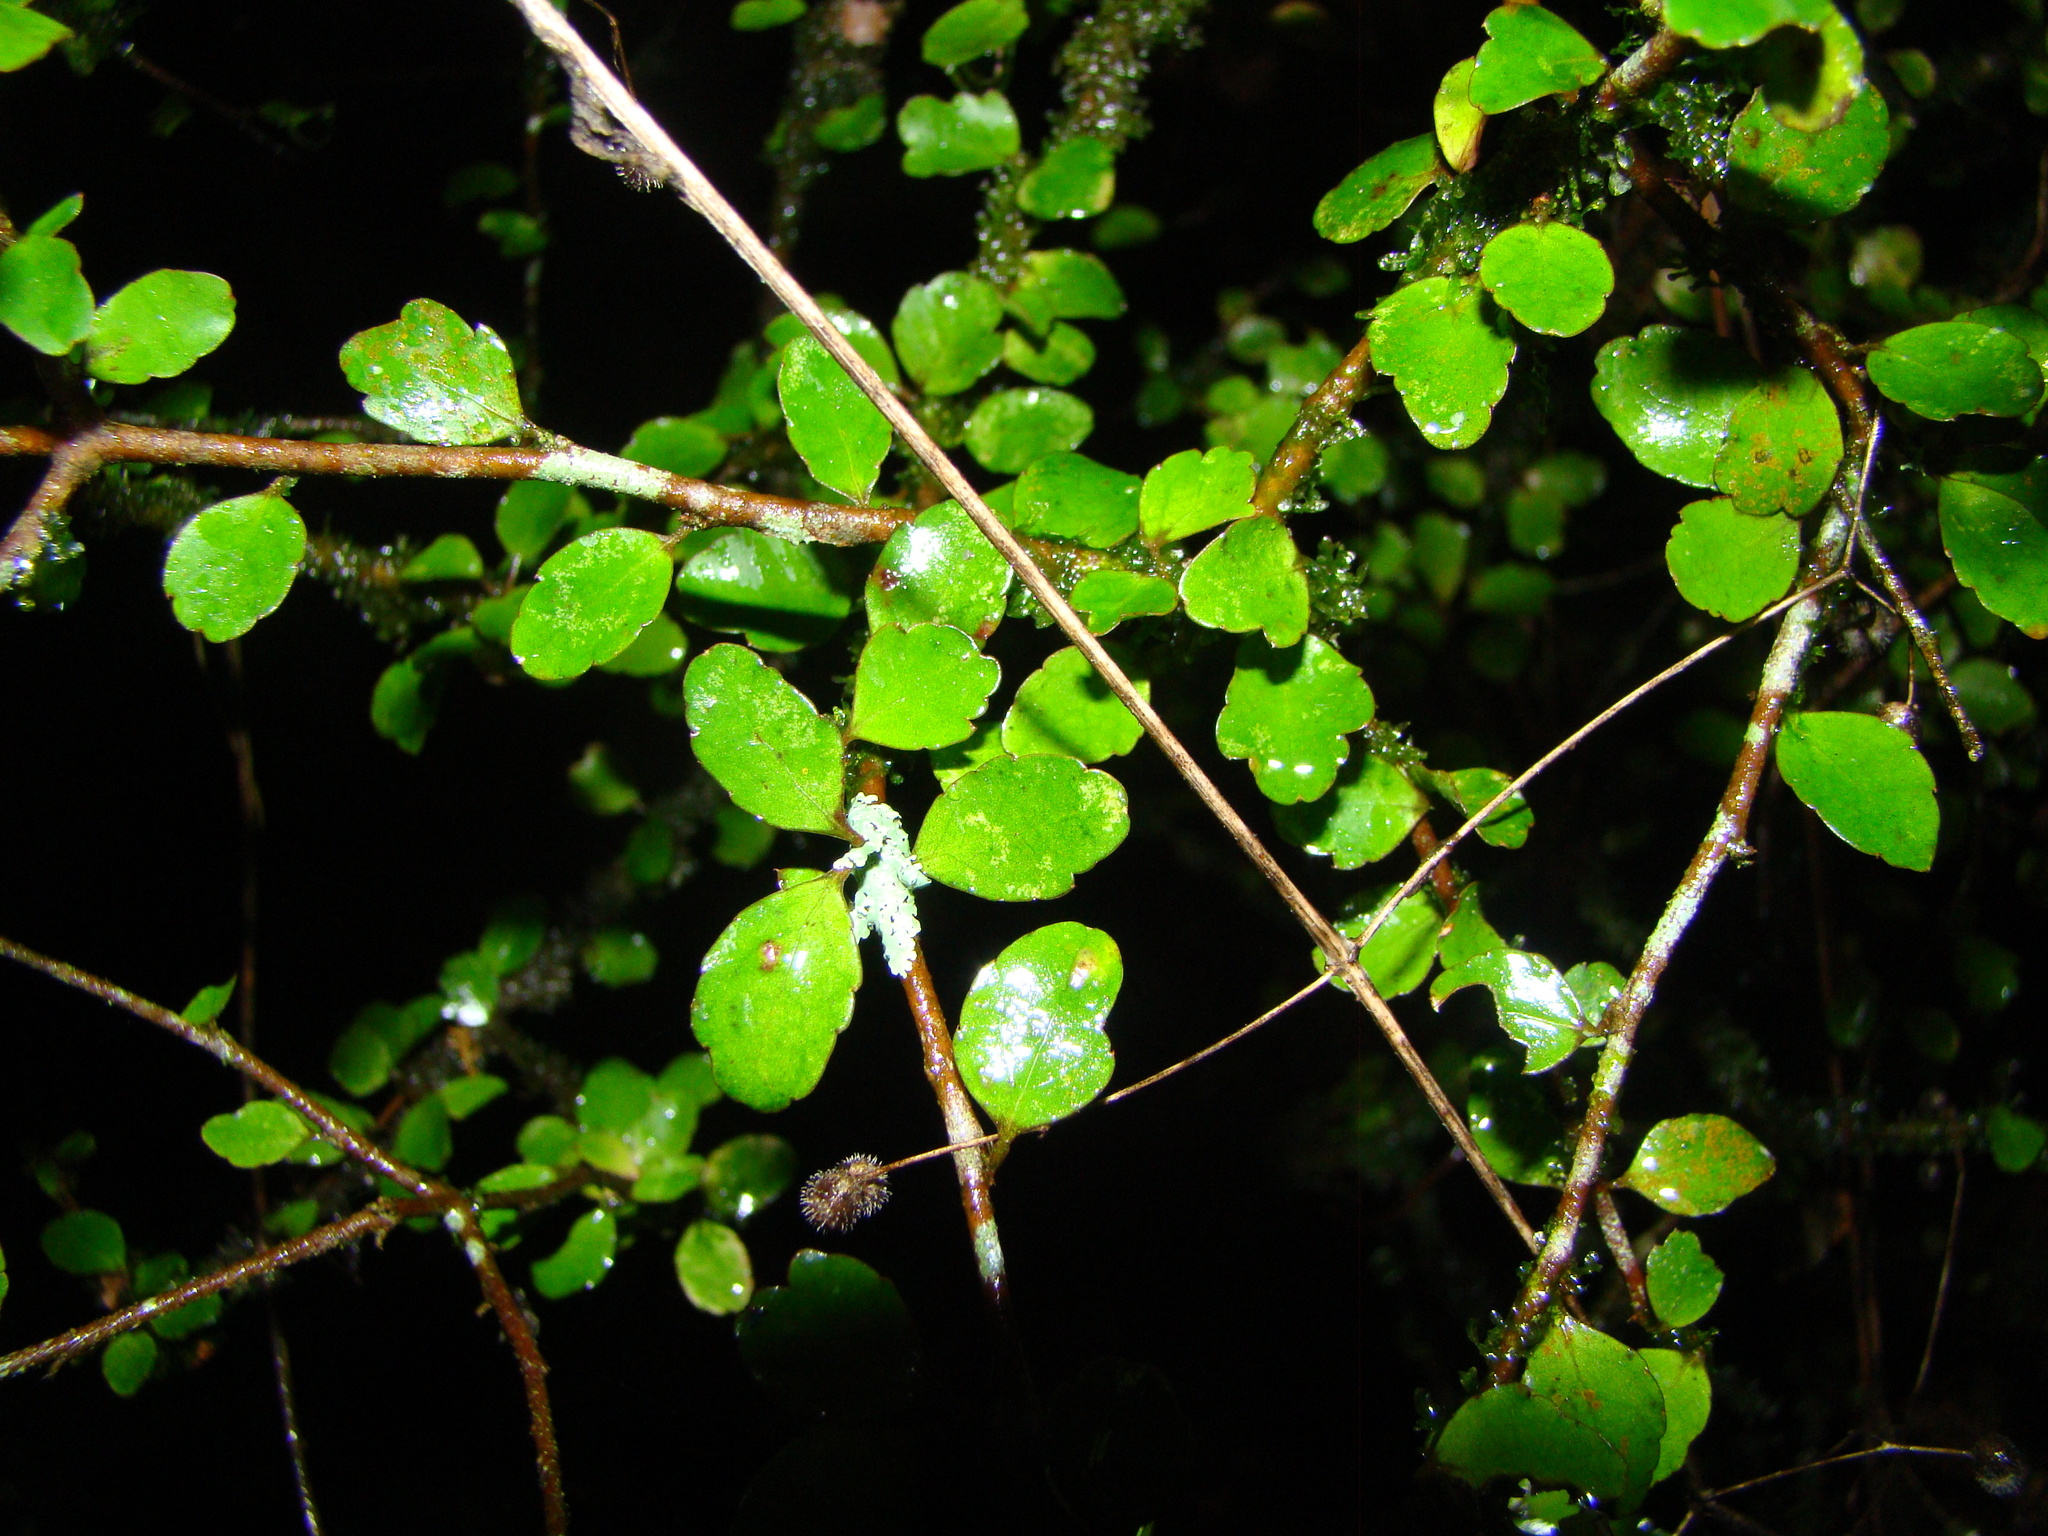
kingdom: Plantae
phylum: Tracheophyta
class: Magnoliopsida
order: Apiales
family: Araliaceae
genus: Raukaua
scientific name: Raukaua anomalus
